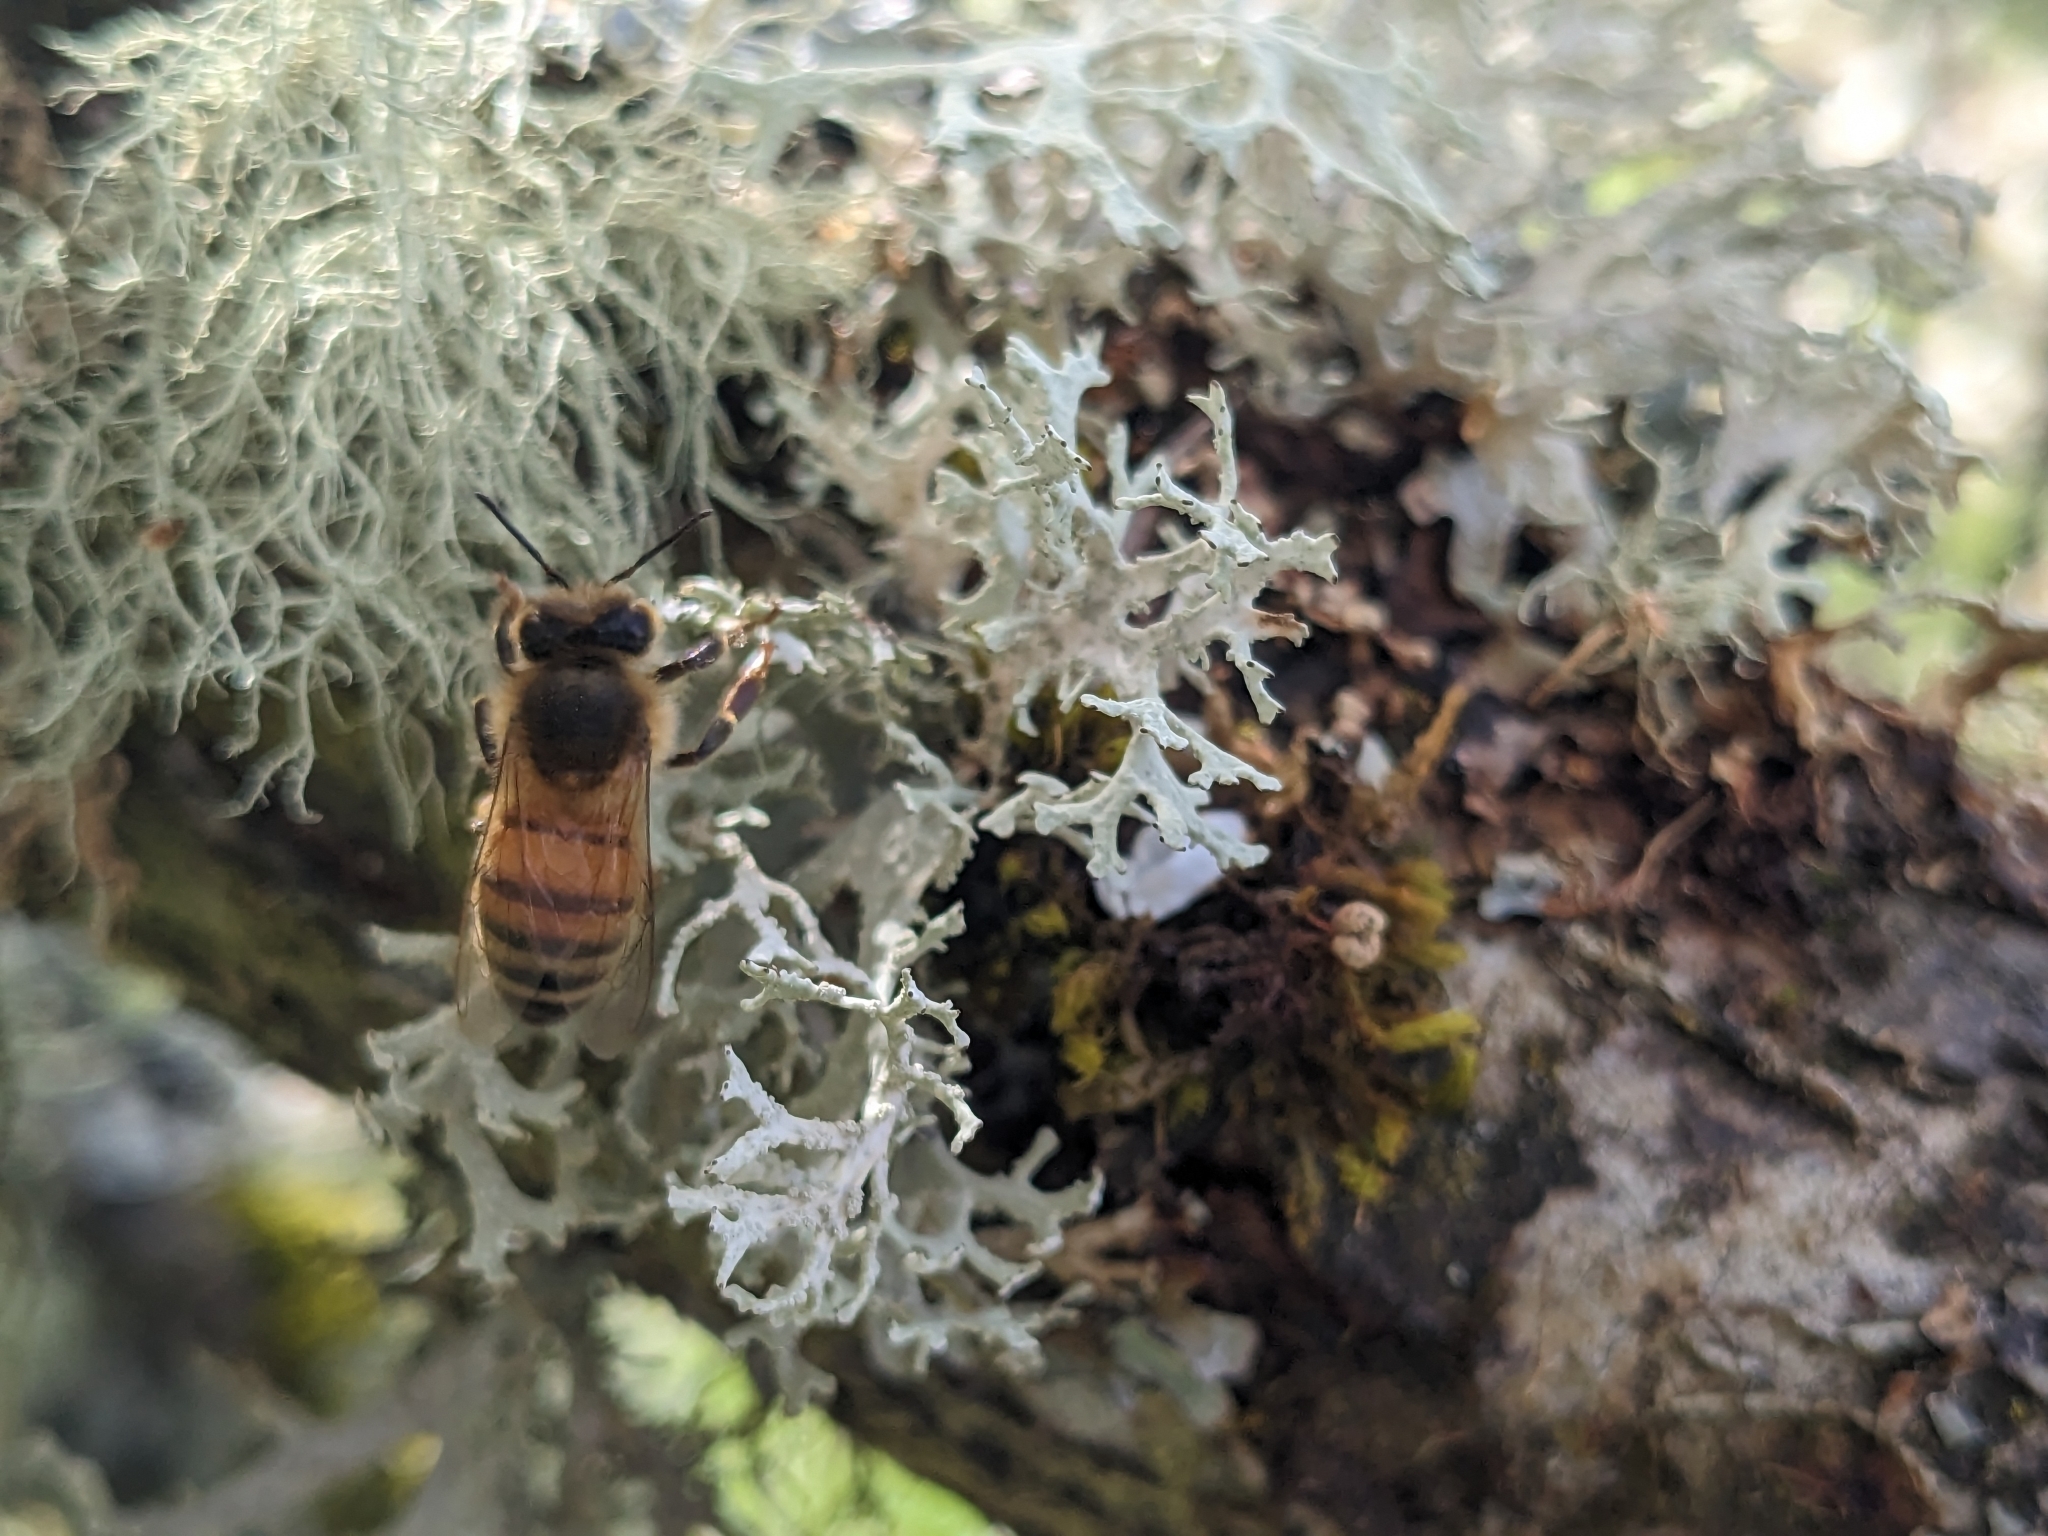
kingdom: Animalia
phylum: Arthropoda
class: Insecta
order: Hymenoptera
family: Apidae
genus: Apis
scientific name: Apis mellifera
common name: Honey bee
